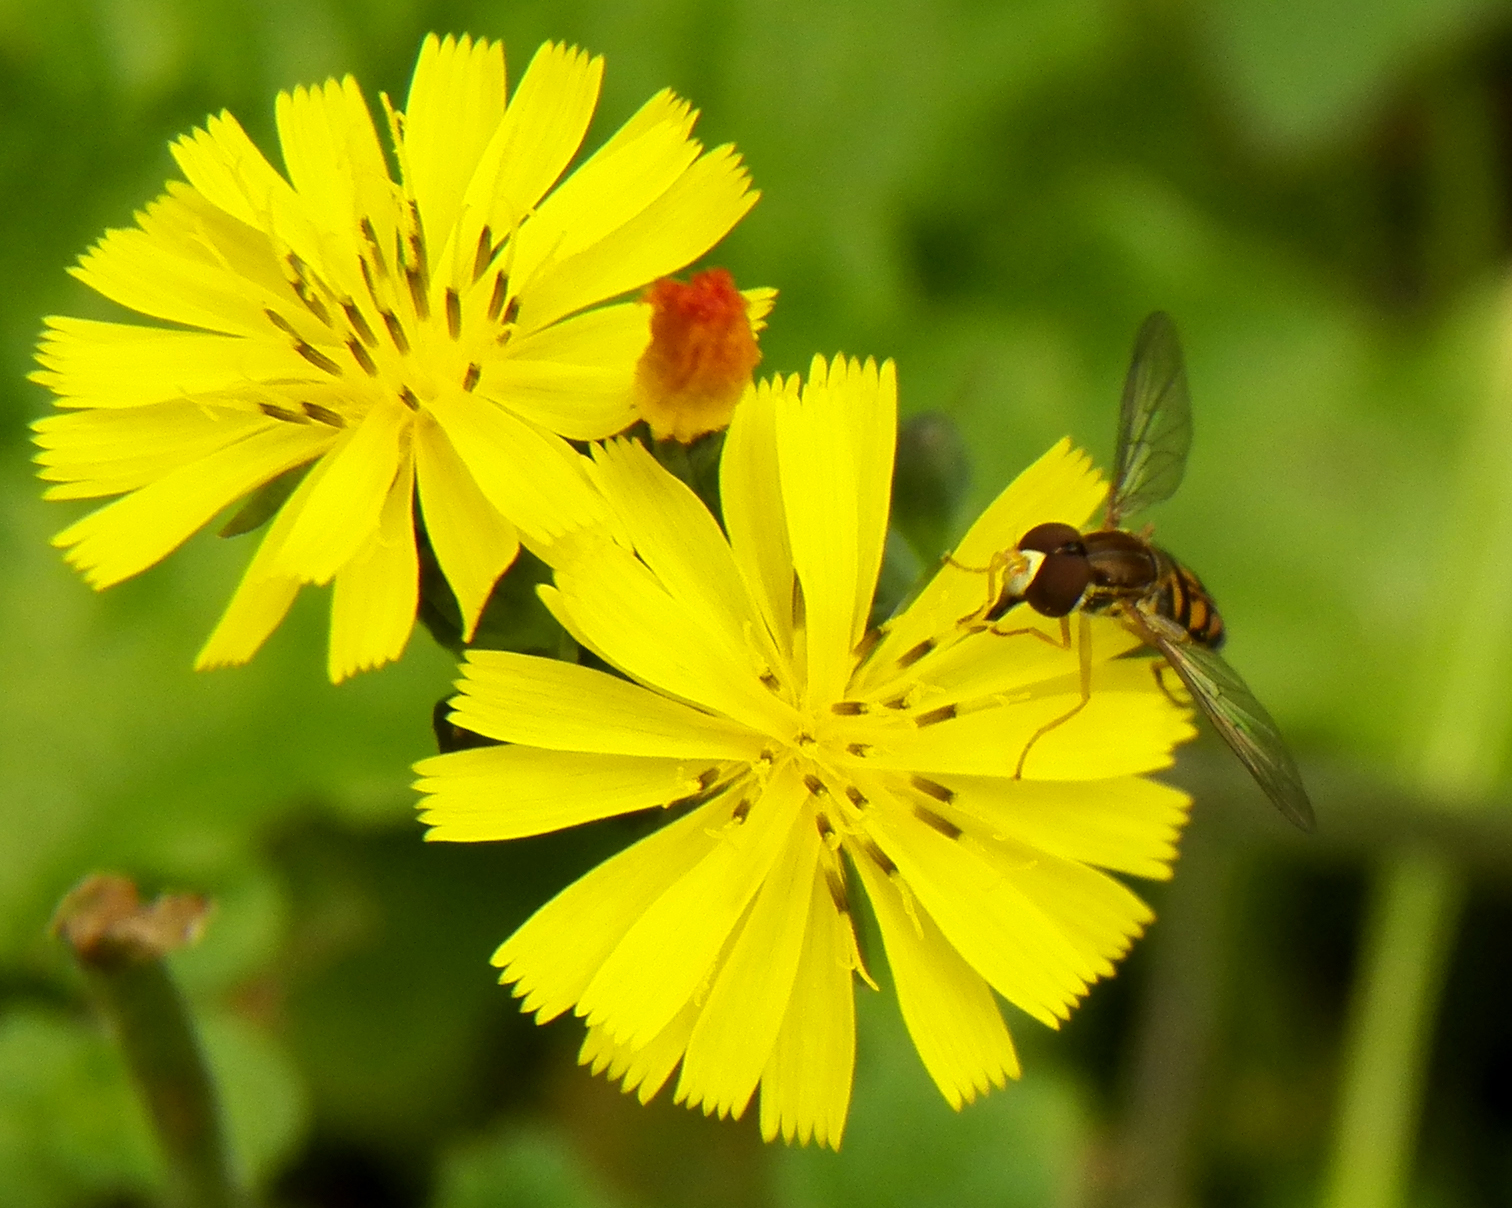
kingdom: Animalia
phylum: Arthropoda
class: Insecta
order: Diptera
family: Syrphidae
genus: Toxomerus
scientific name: Toxomerus marginatus
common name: Syrphid fly
